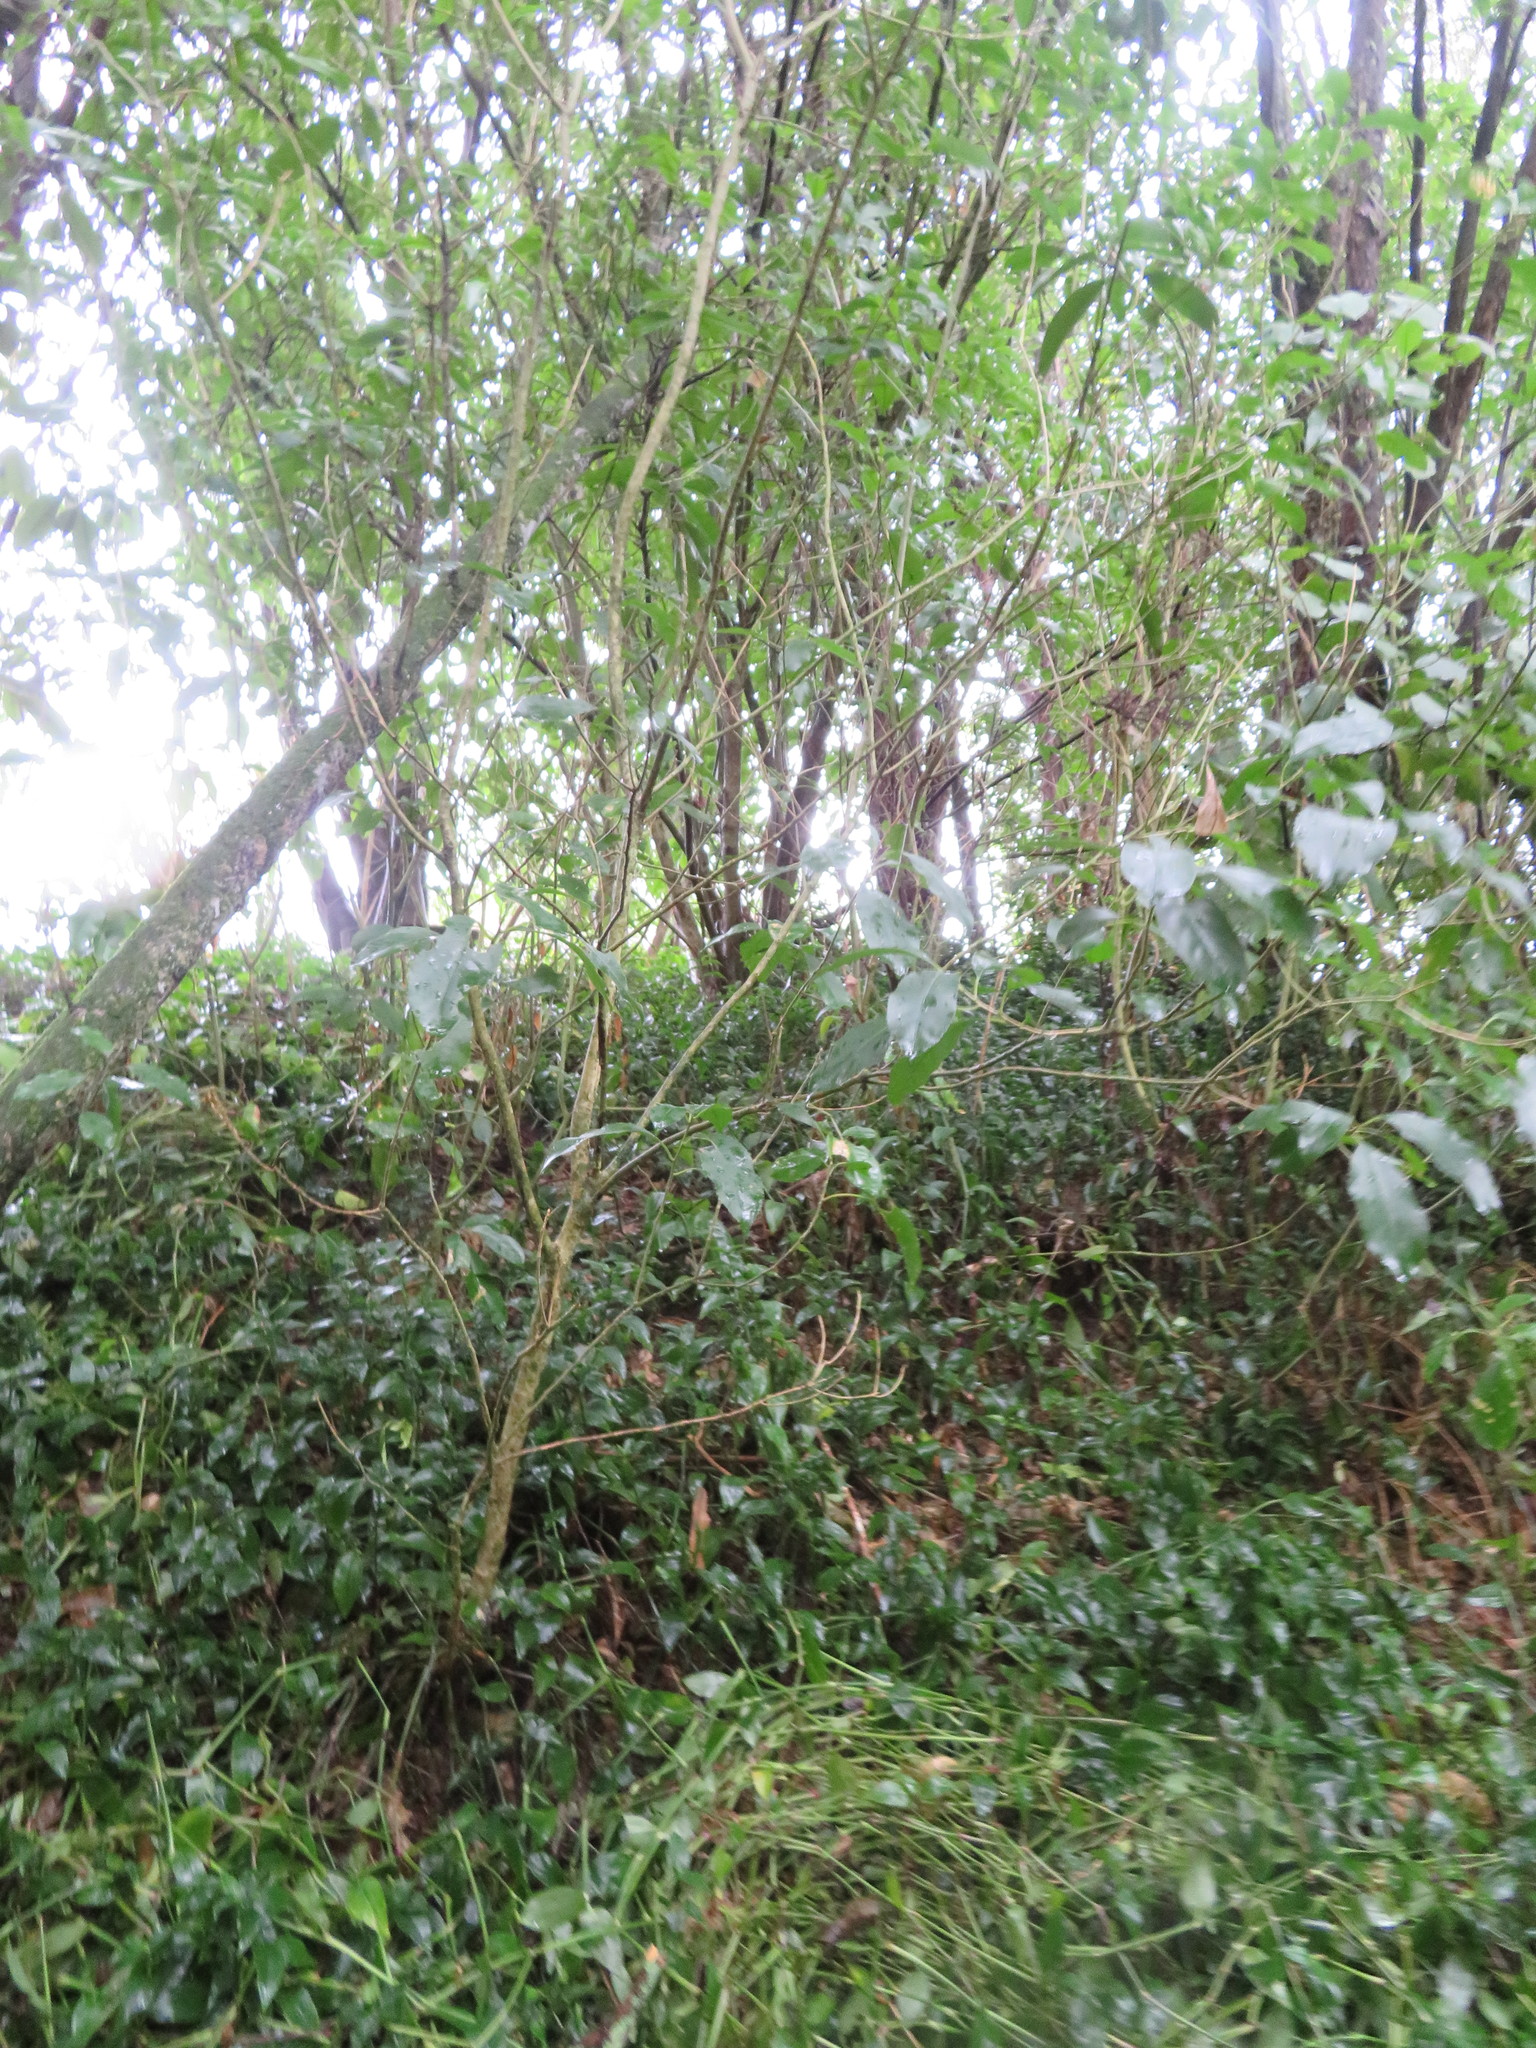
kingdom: Plantae
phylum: Tracheophyta
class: Liliopsida
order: Commelinales
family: Commelinaceae
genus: Tradescantia
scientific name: Tradescantia fluminensis
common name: Wandering-jew
